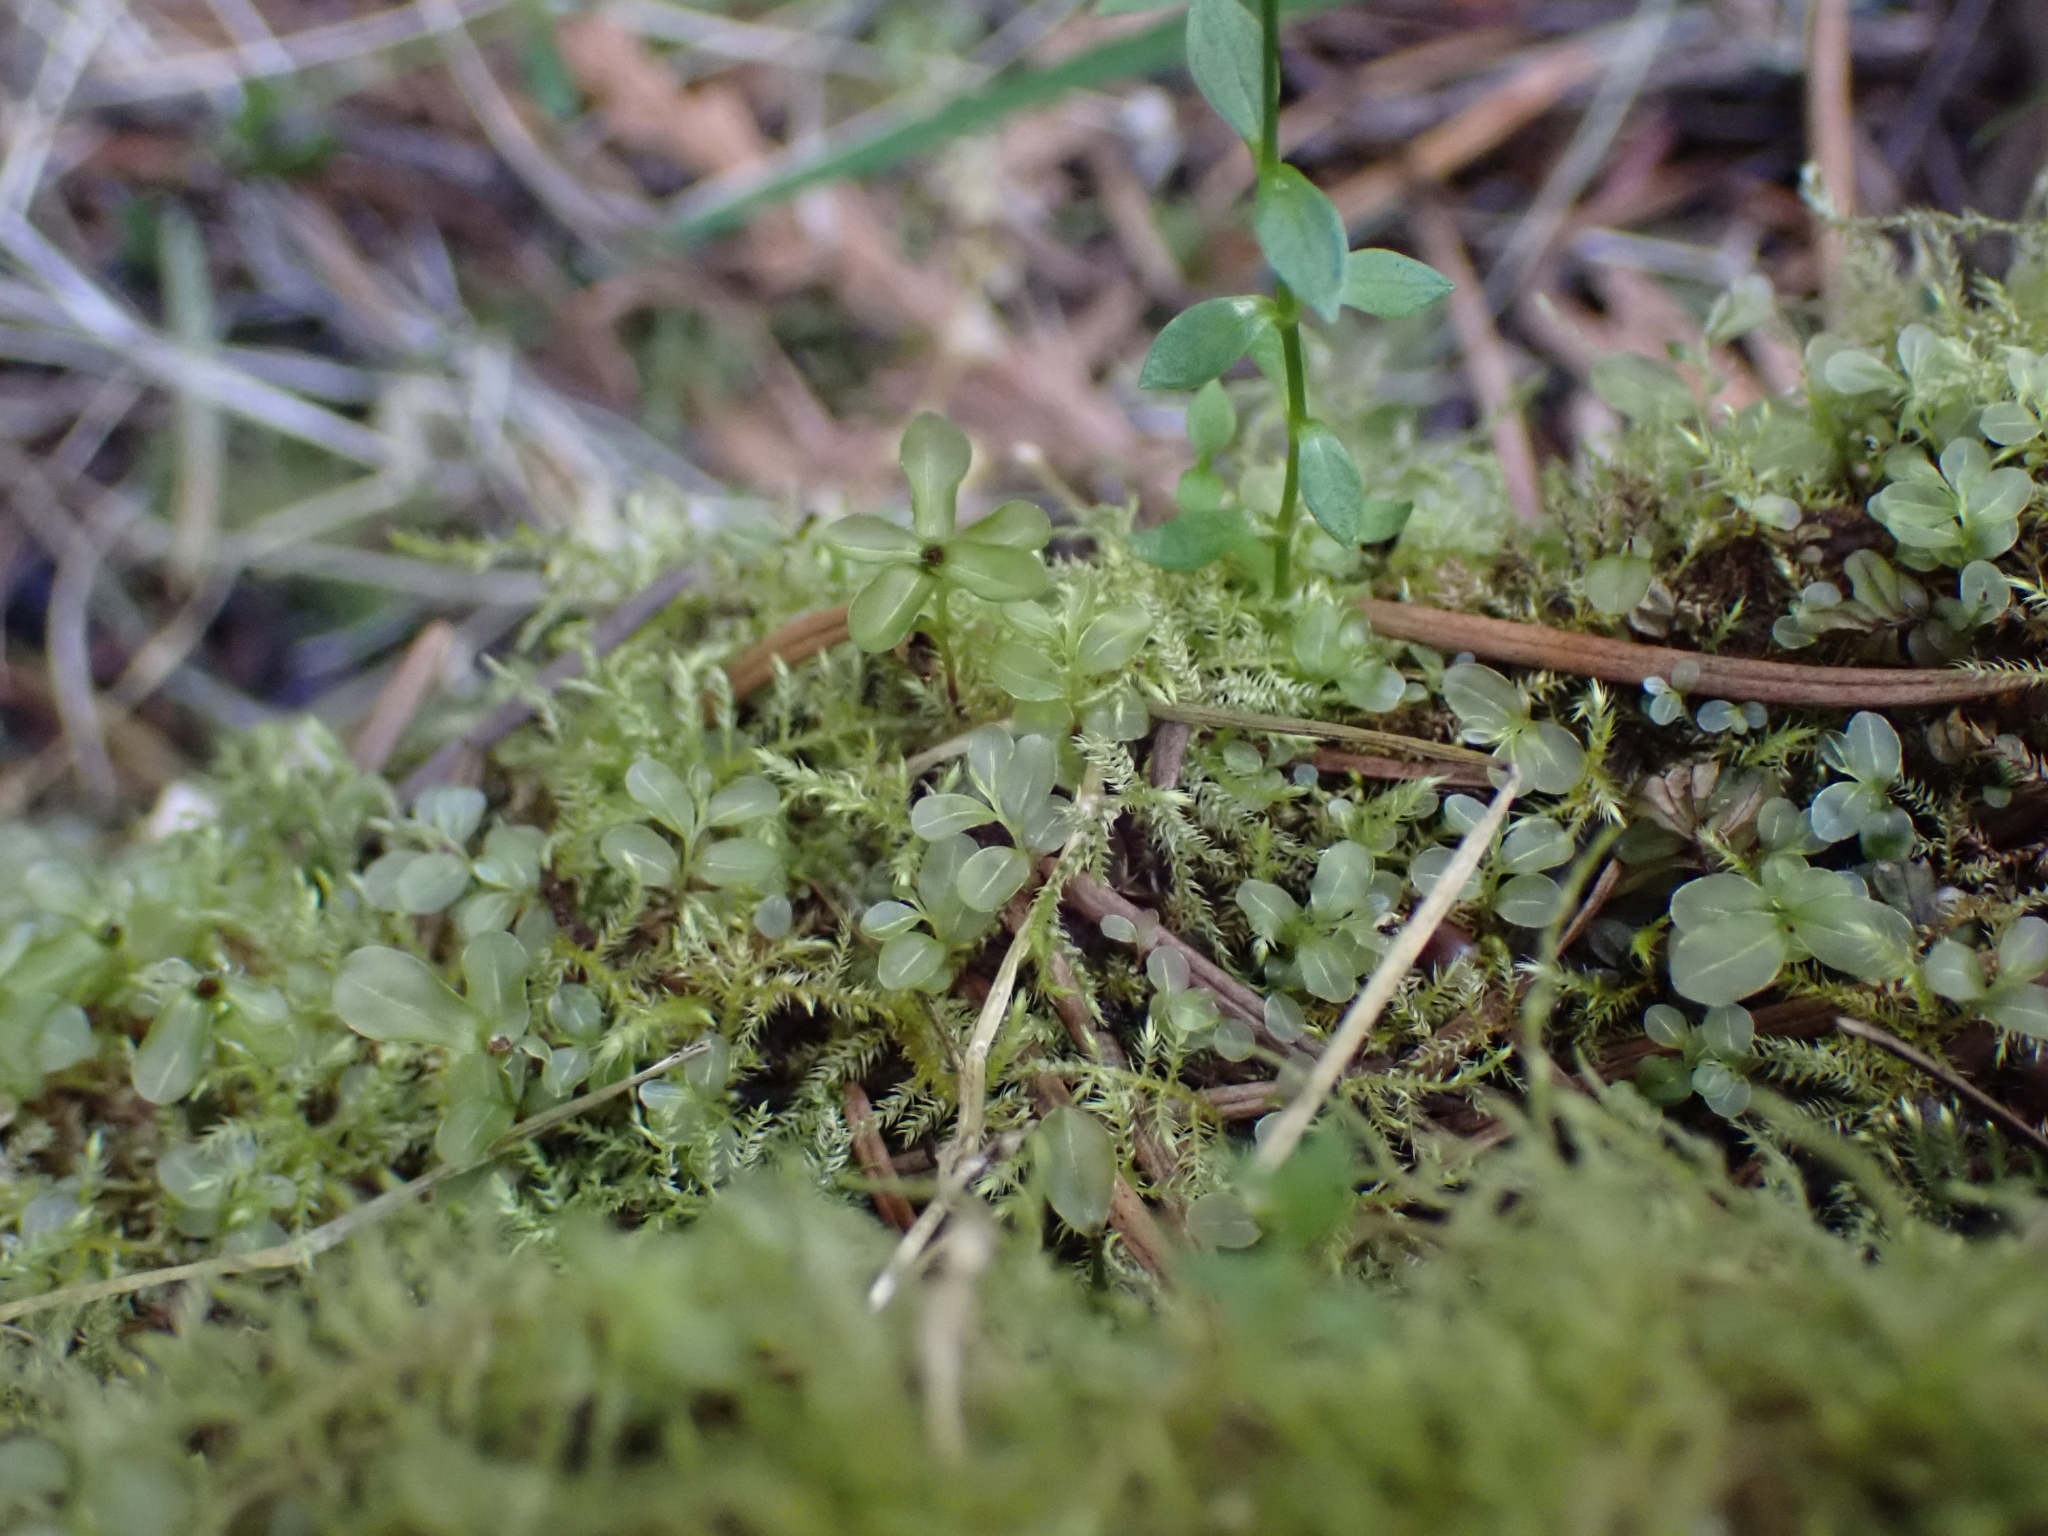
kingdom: Plantae
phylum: Bryophyta
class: Bryopsida
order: Bryales
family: Mniaceae
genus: Rhizomnium
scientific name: Rhizomnium glabrescens
